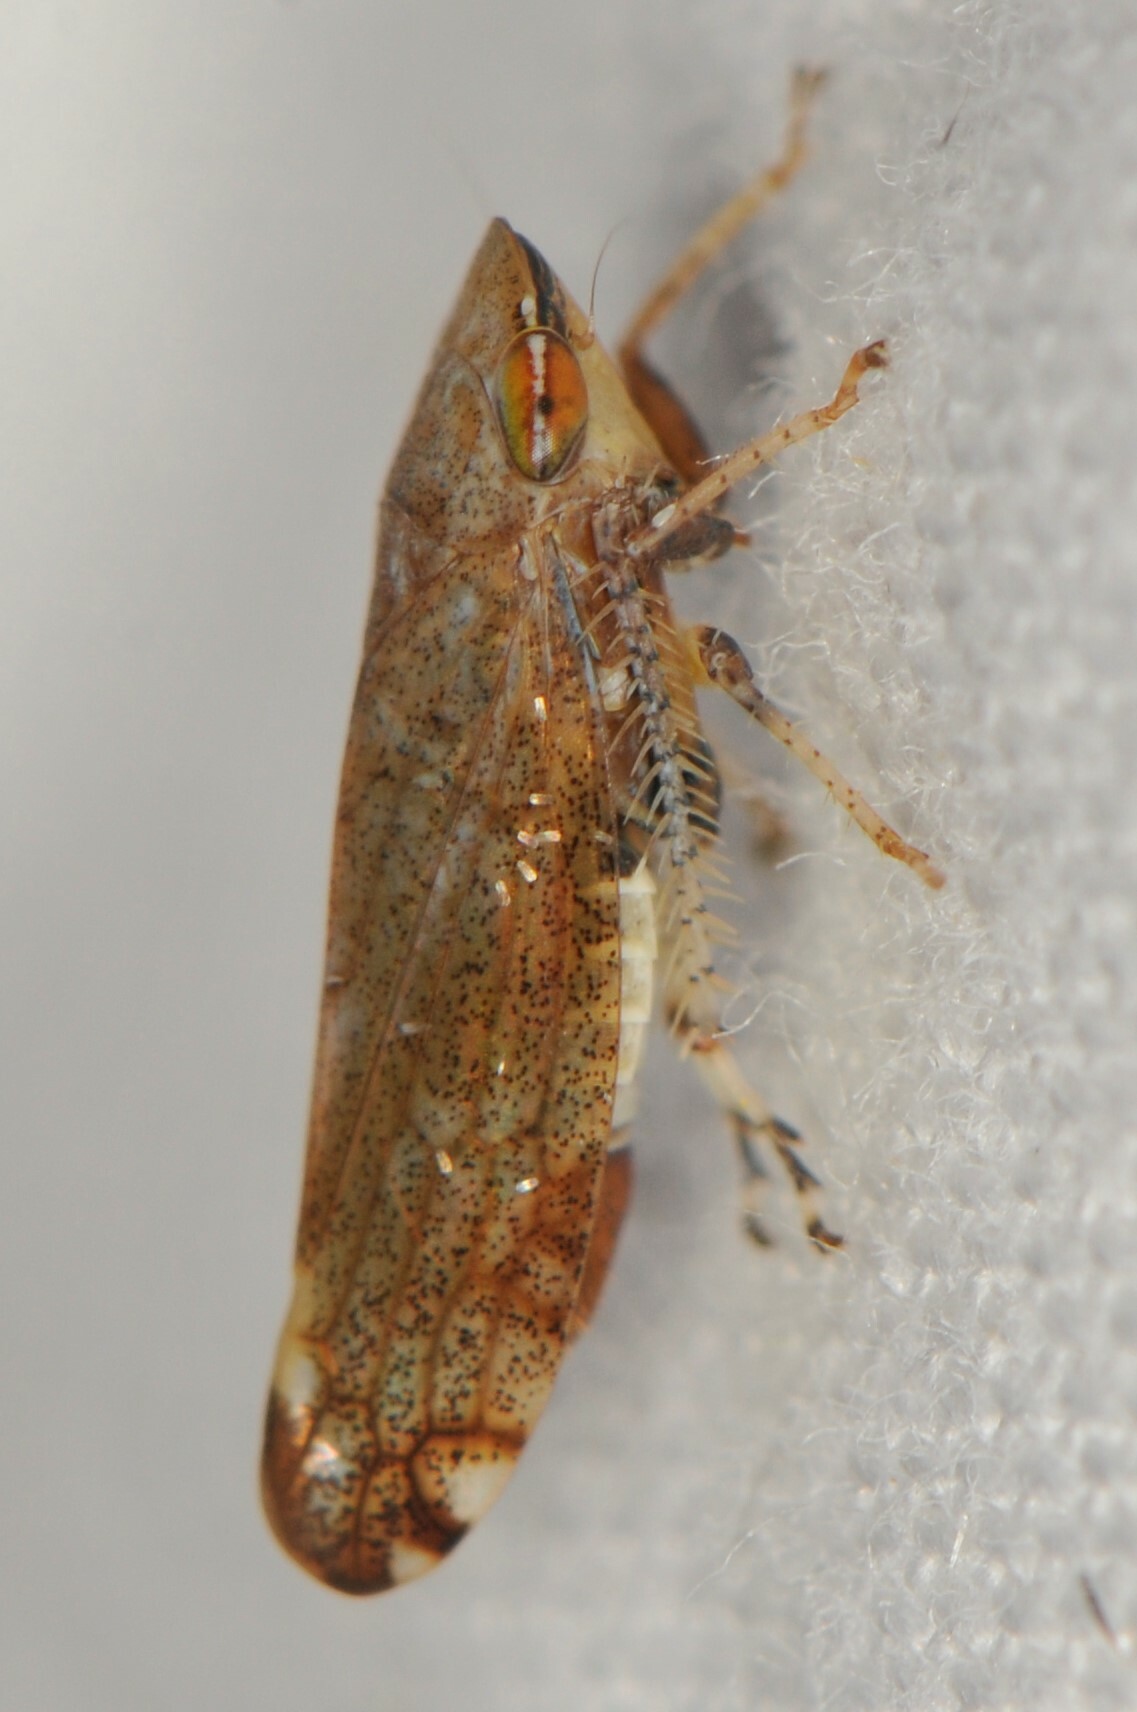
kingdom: Animalia
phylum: Arthropoda
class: Insecta
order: Hemiptera
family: Cicadellidae
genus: Fieberiella
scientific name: Fieberiella florii
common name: Flor’s leafhopper
